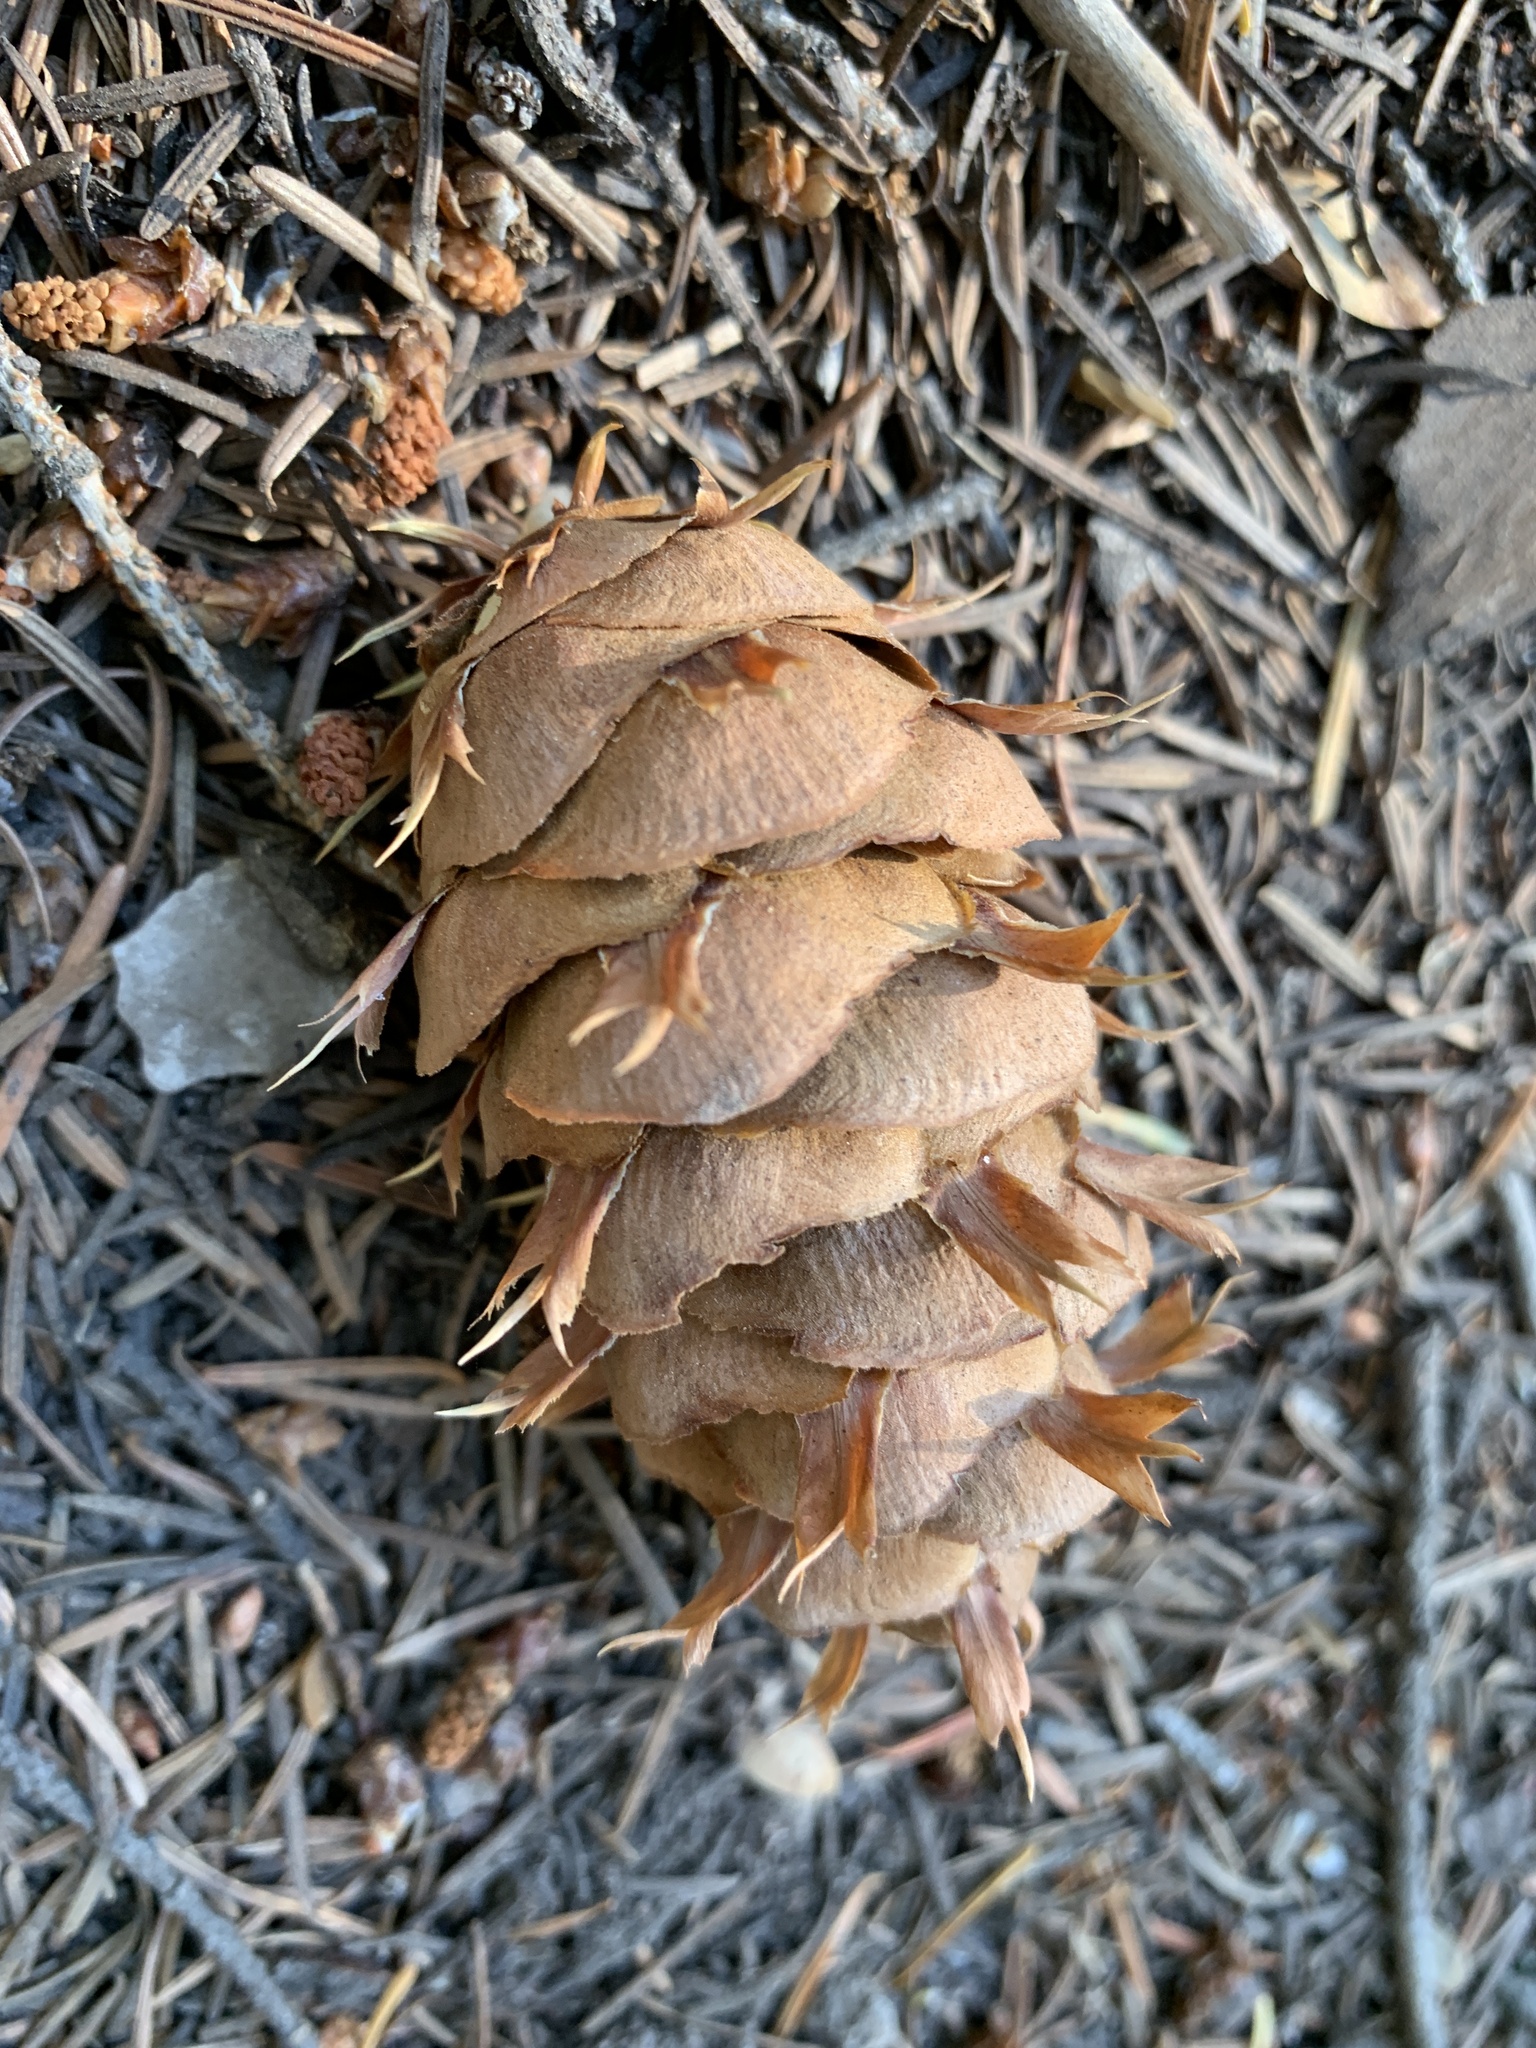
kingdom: Plantae
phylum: Tracheophyta
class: Pinopsida
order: Pinales
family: Pinaceae
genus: Pseudotsuga
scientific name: Pseudotsuga menziesii
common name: Douglas fir
